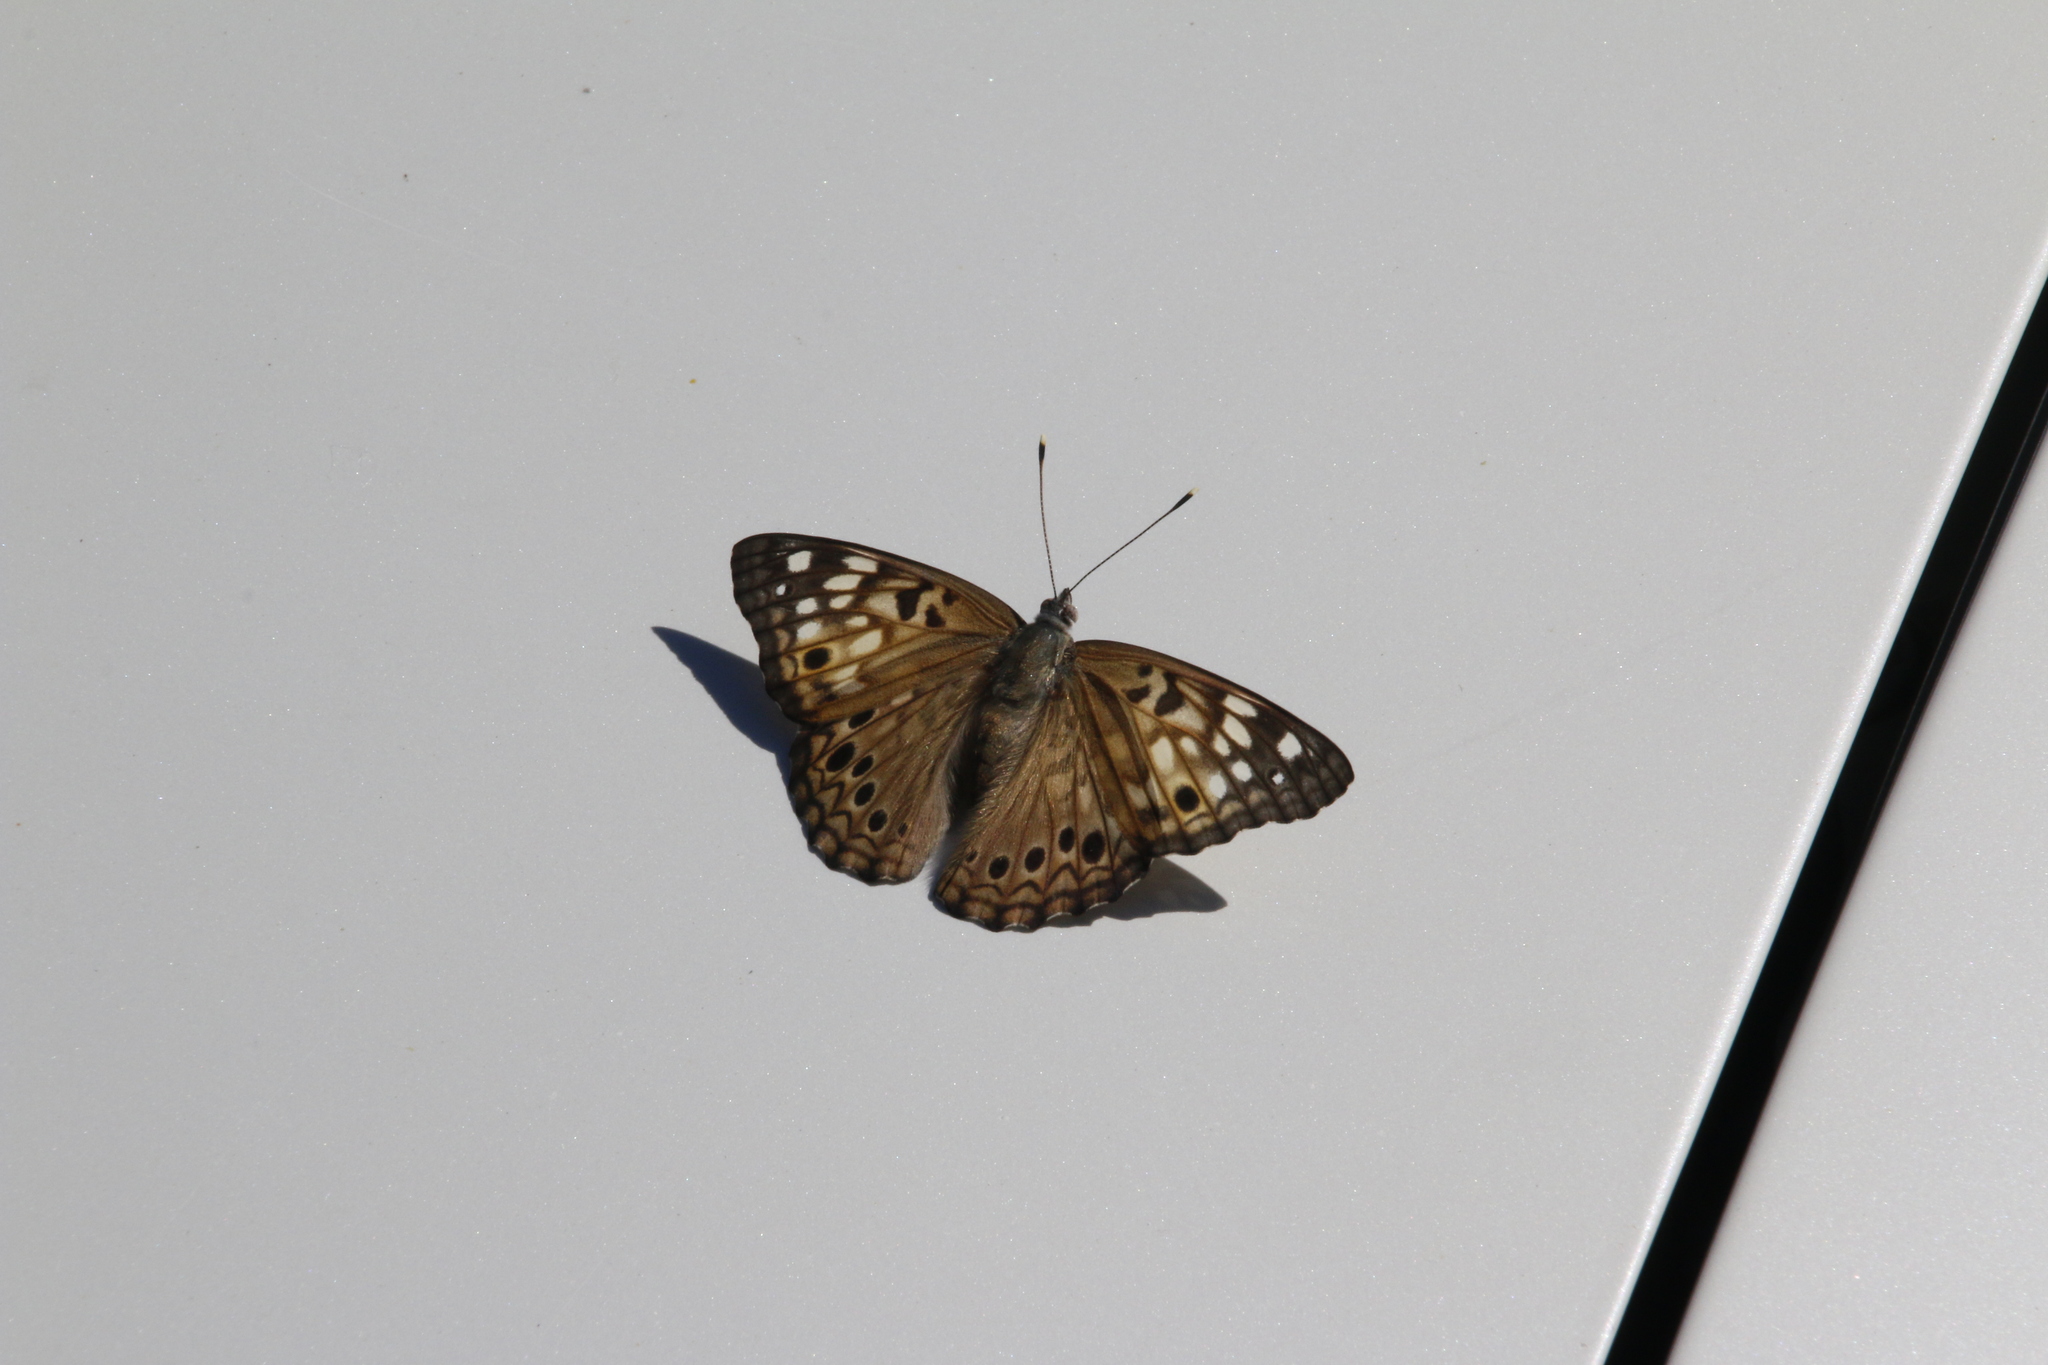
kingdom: Animalia
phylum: Arthropoda
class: Insecta
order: Lepidoptera
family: Nymphalidae
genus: Asterocampa
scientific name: Asterocampa celtis
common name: Hackberry emperor
